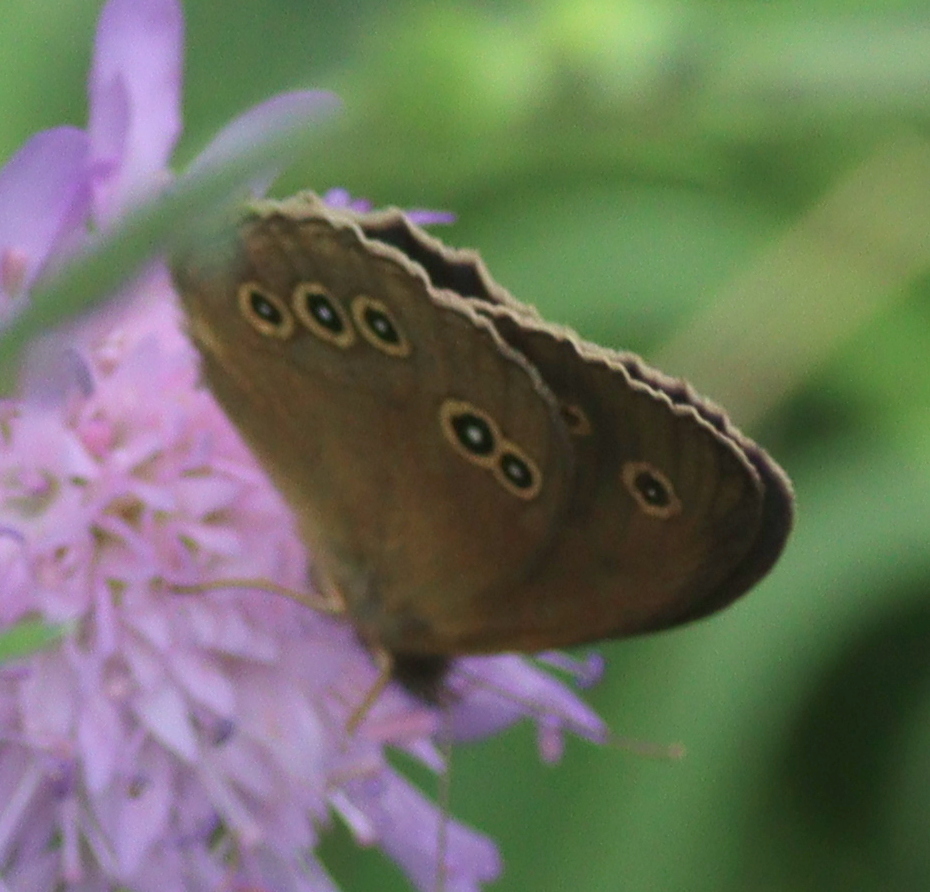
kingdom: Animalia
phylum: Arthropoda
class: Insecta
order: Lepidoptera
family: Nymphalidae
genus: Aphantopus
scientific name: Aphantopus hyperantus
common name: Ringlet
